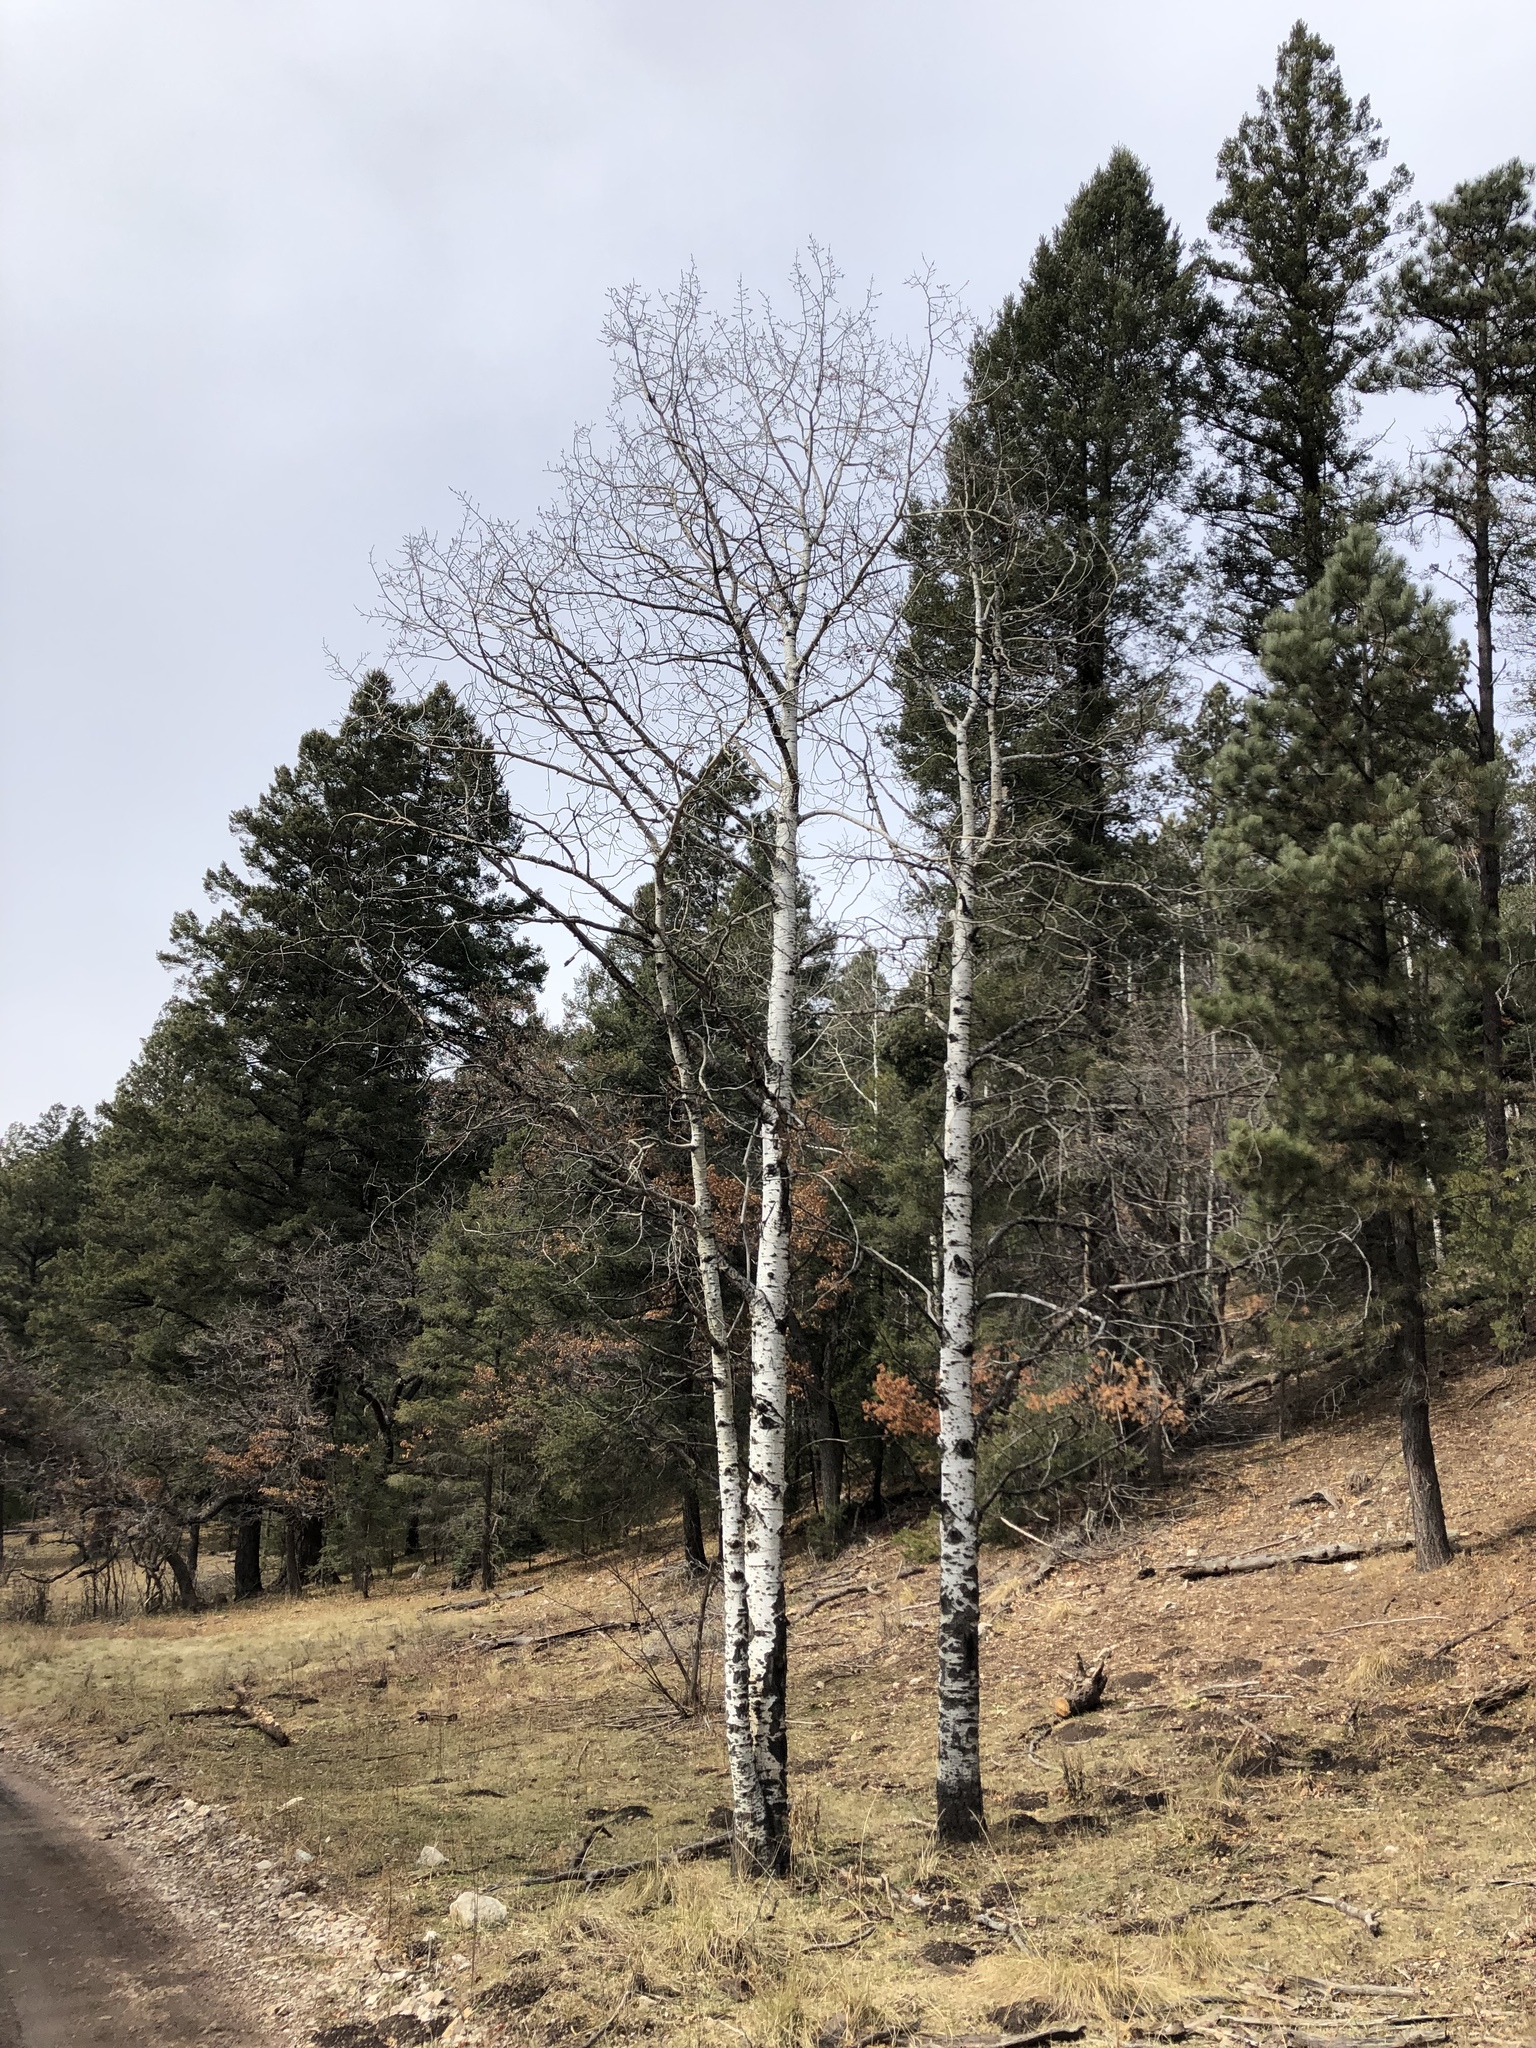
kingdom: Plantae
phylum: Tracheophyta
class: Magnoliopsida
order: Malpighiales
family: Salicaceae
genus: Populus
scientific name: Populus tremuloides
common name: Quaking aspen
